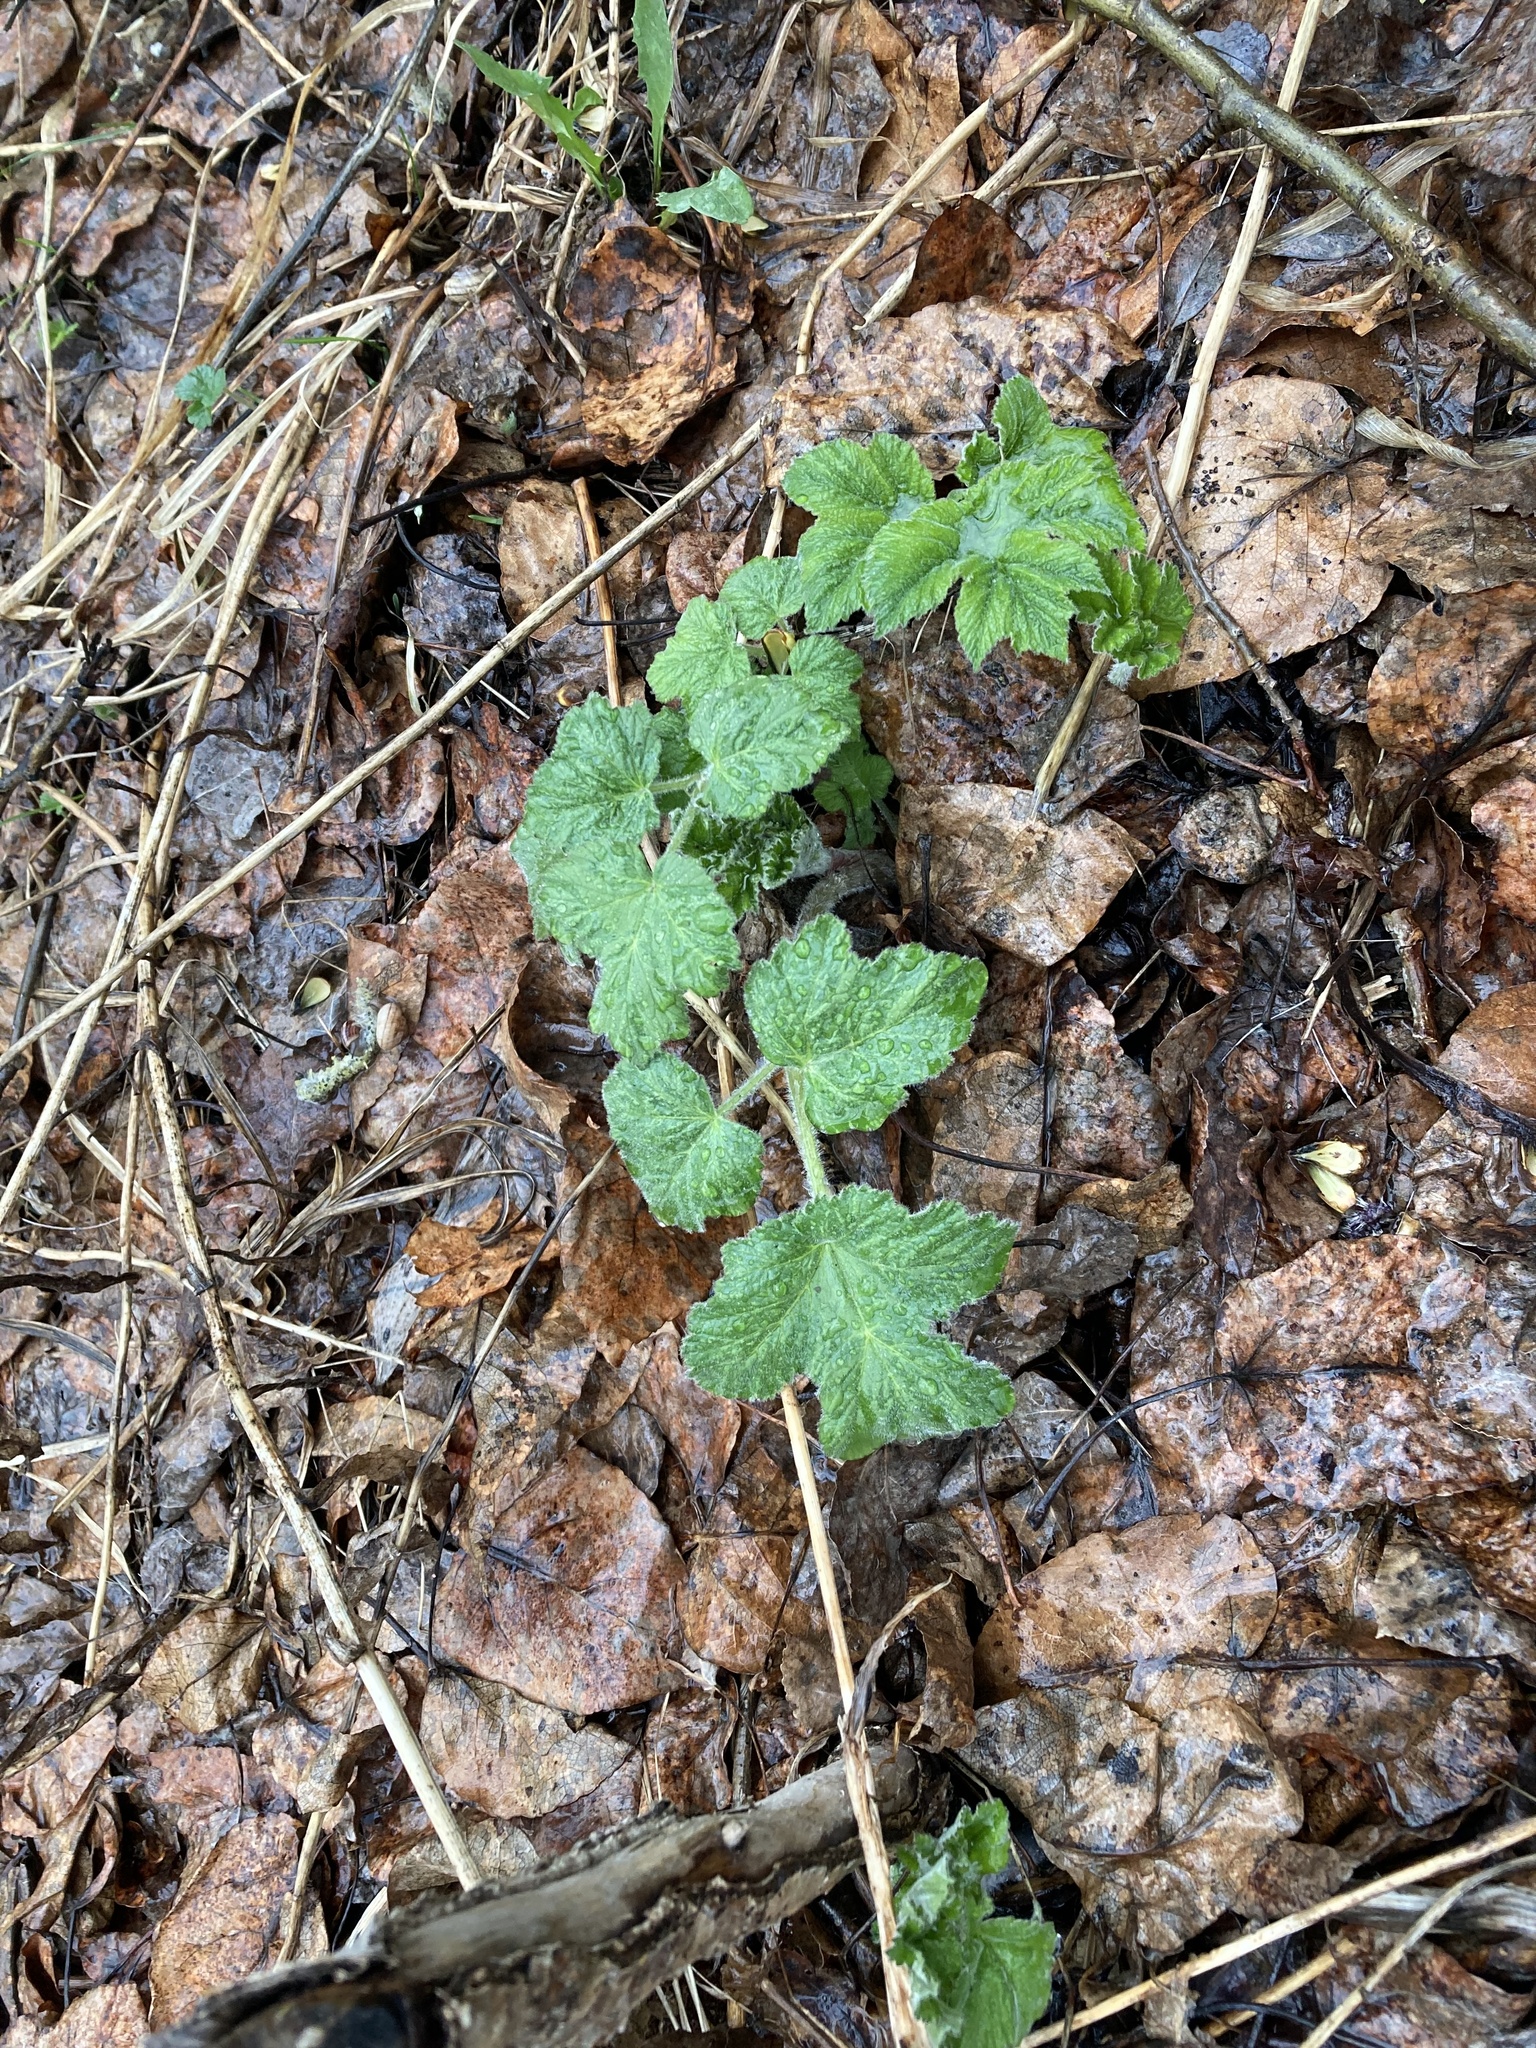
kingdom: Plantae
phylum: Tracheophyta
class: Magnoliopsida
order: Apiales
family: Apiaceae
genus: Heracleum
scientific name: Heracleum maximum
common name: American cow parsnip
